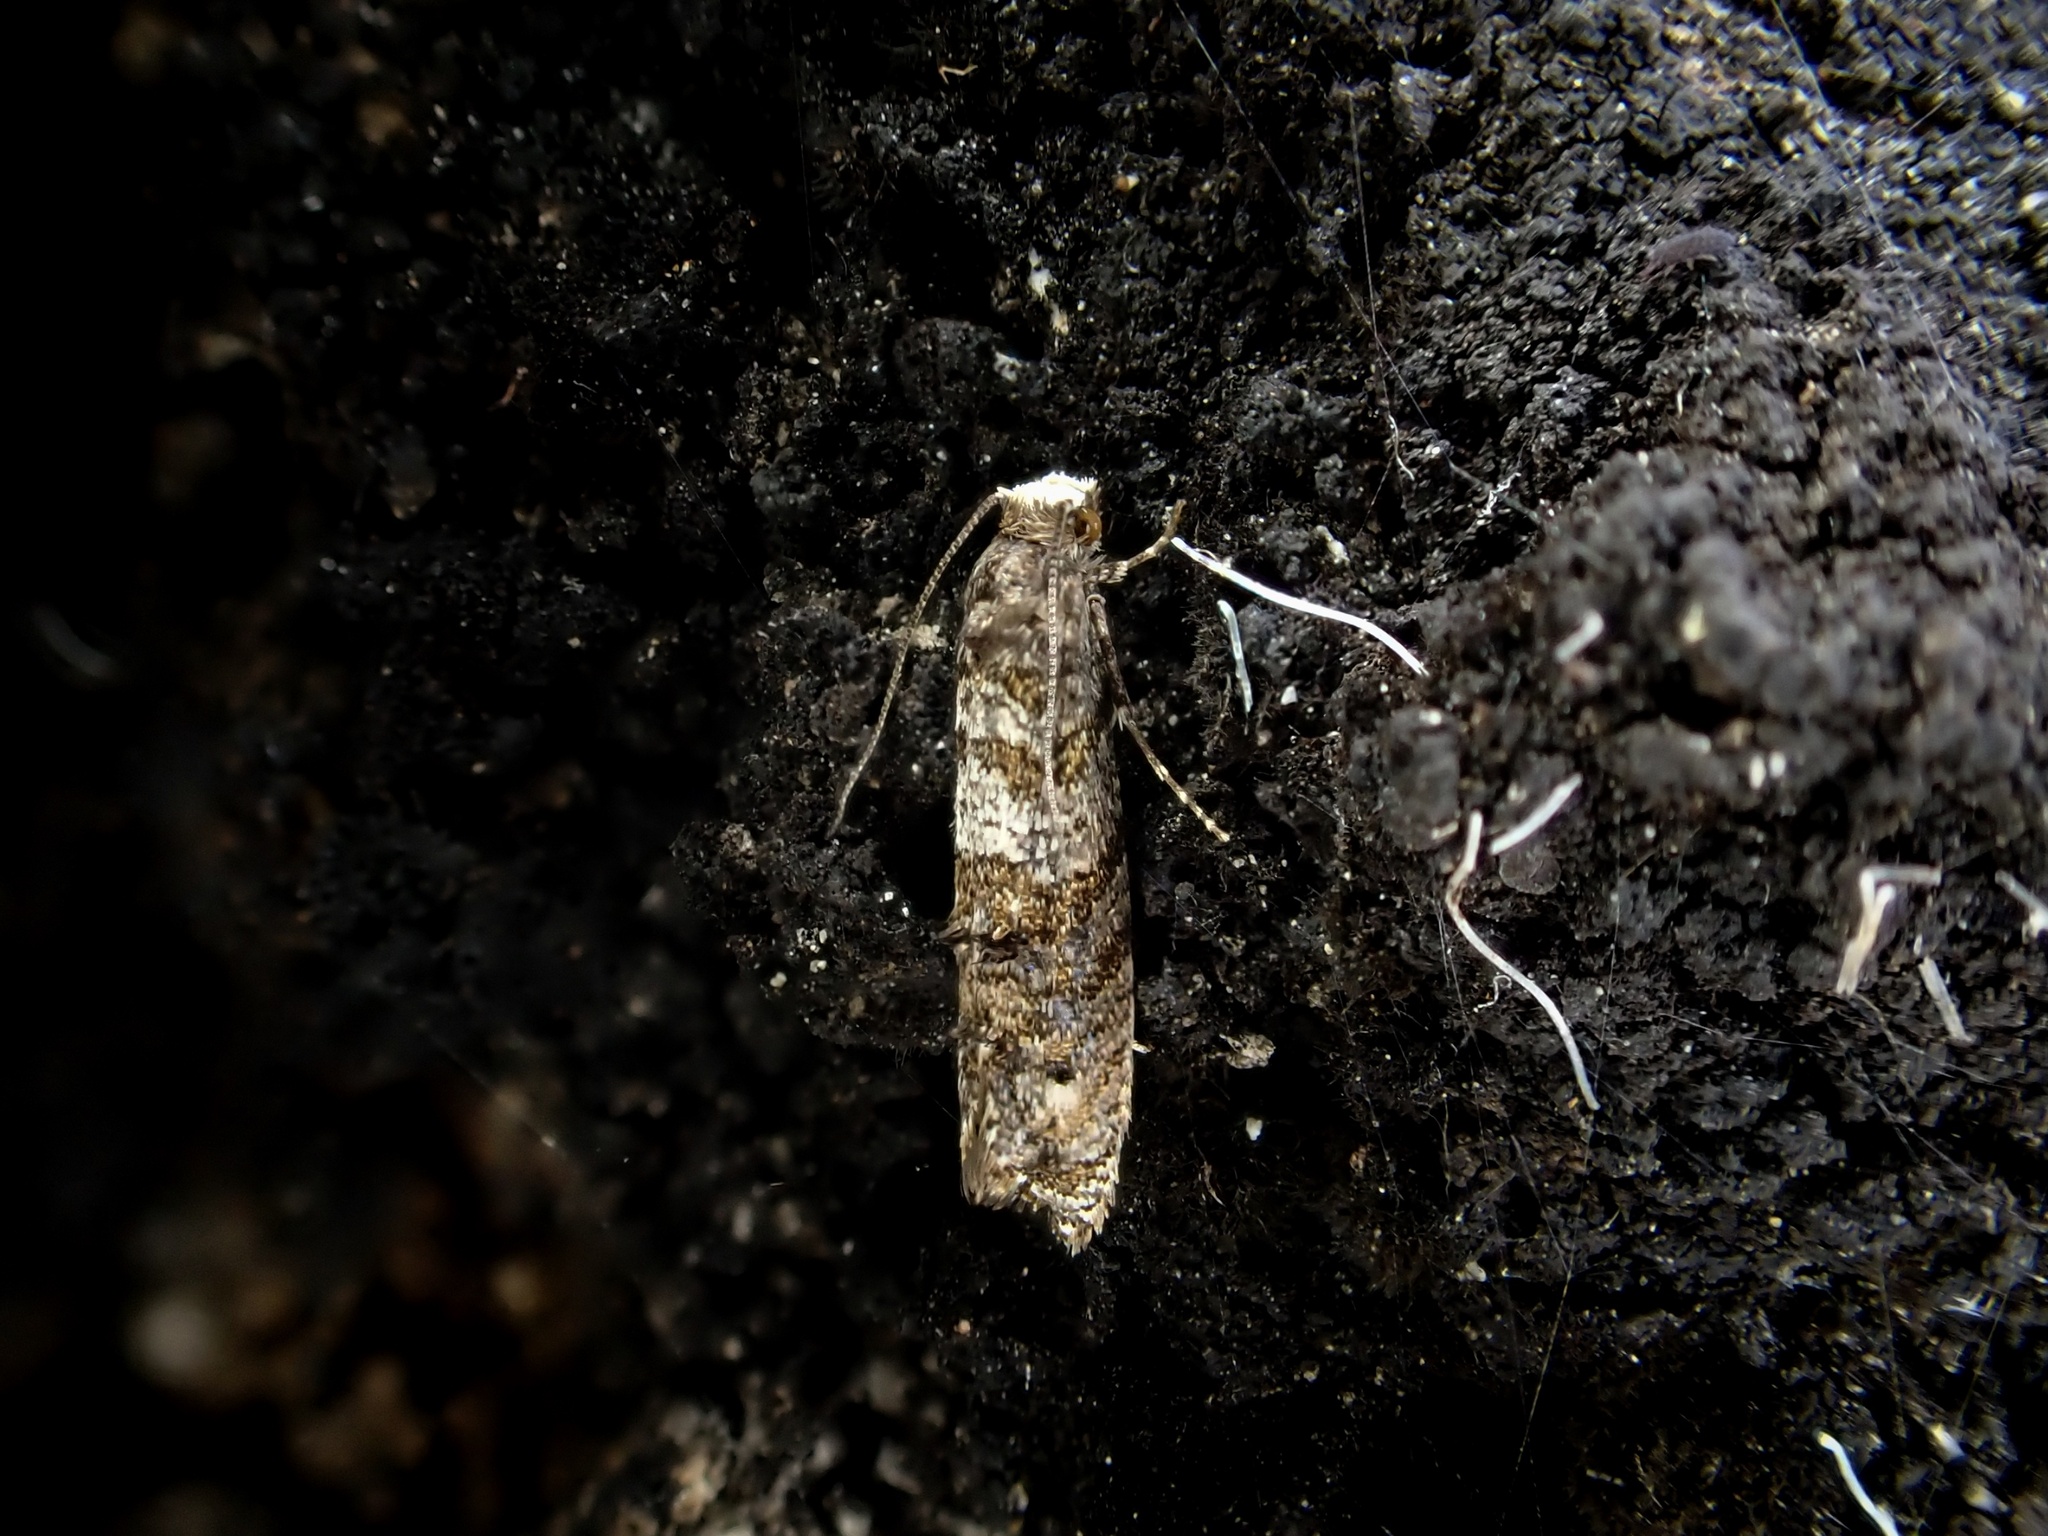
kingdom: Animalia
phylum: Arthropoda
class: Insecta
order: Lepidoptera
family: Tineidae
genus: Archyala
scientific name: Archyala lindsayi
